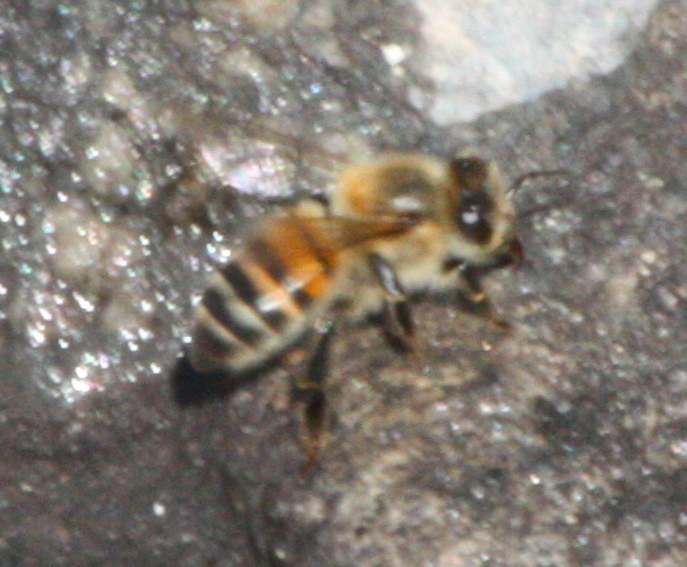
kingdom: Animalia
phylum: Arthropoda
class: Insecta
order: Hymenoptera
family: Apidae
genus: Apis
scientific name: Apis mellifera
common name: Honey bee
